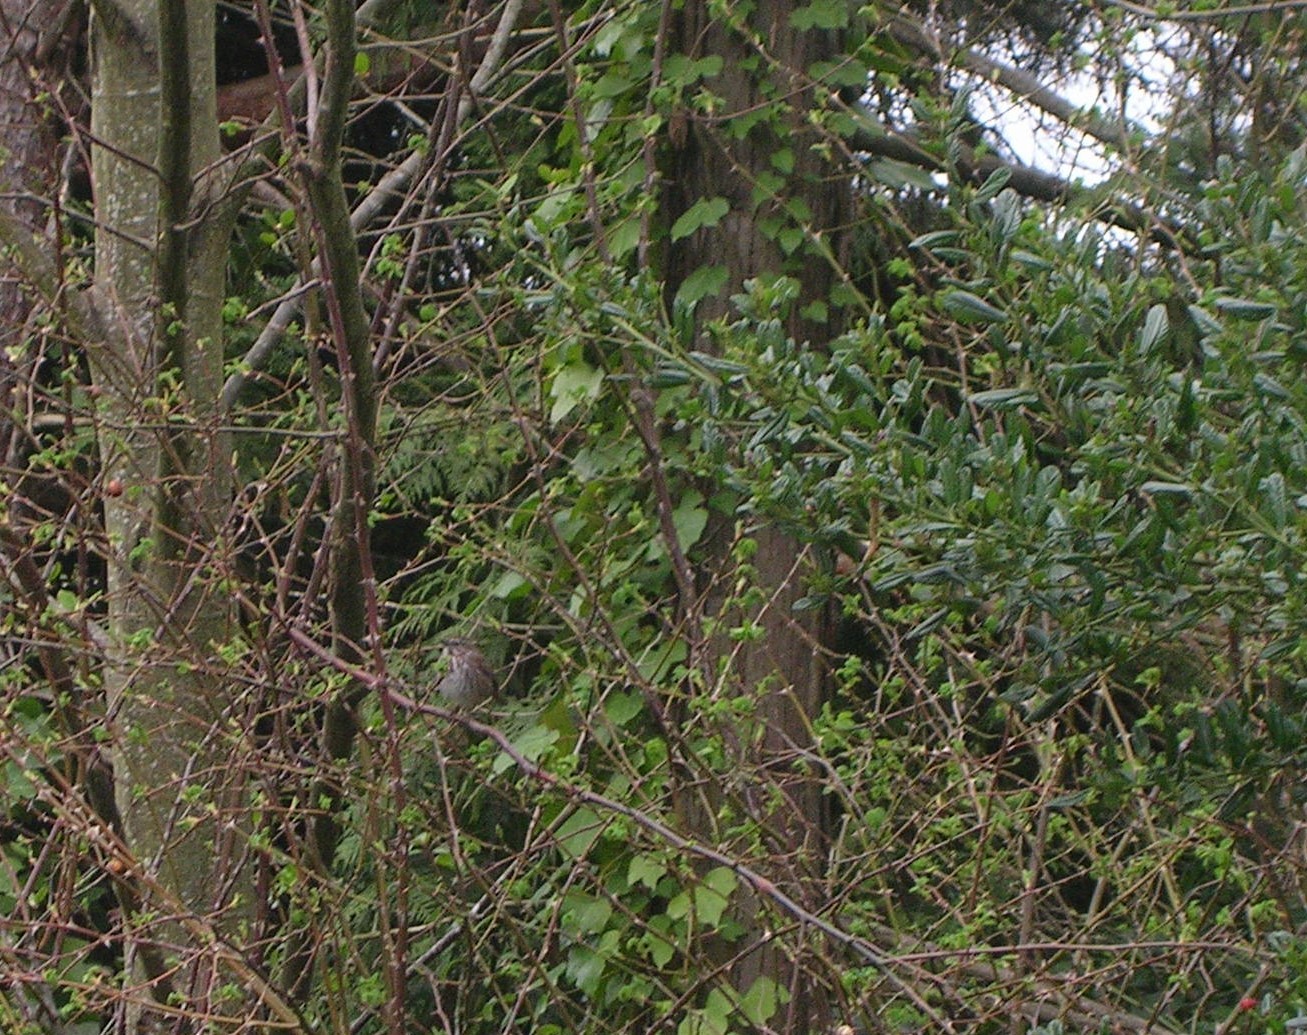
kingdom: Animalia
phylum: Chordata
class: Aves
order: Passeriformes
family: Passerellidae
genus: Melospiza
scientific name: Melospiza melodia
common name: Song sparrow
